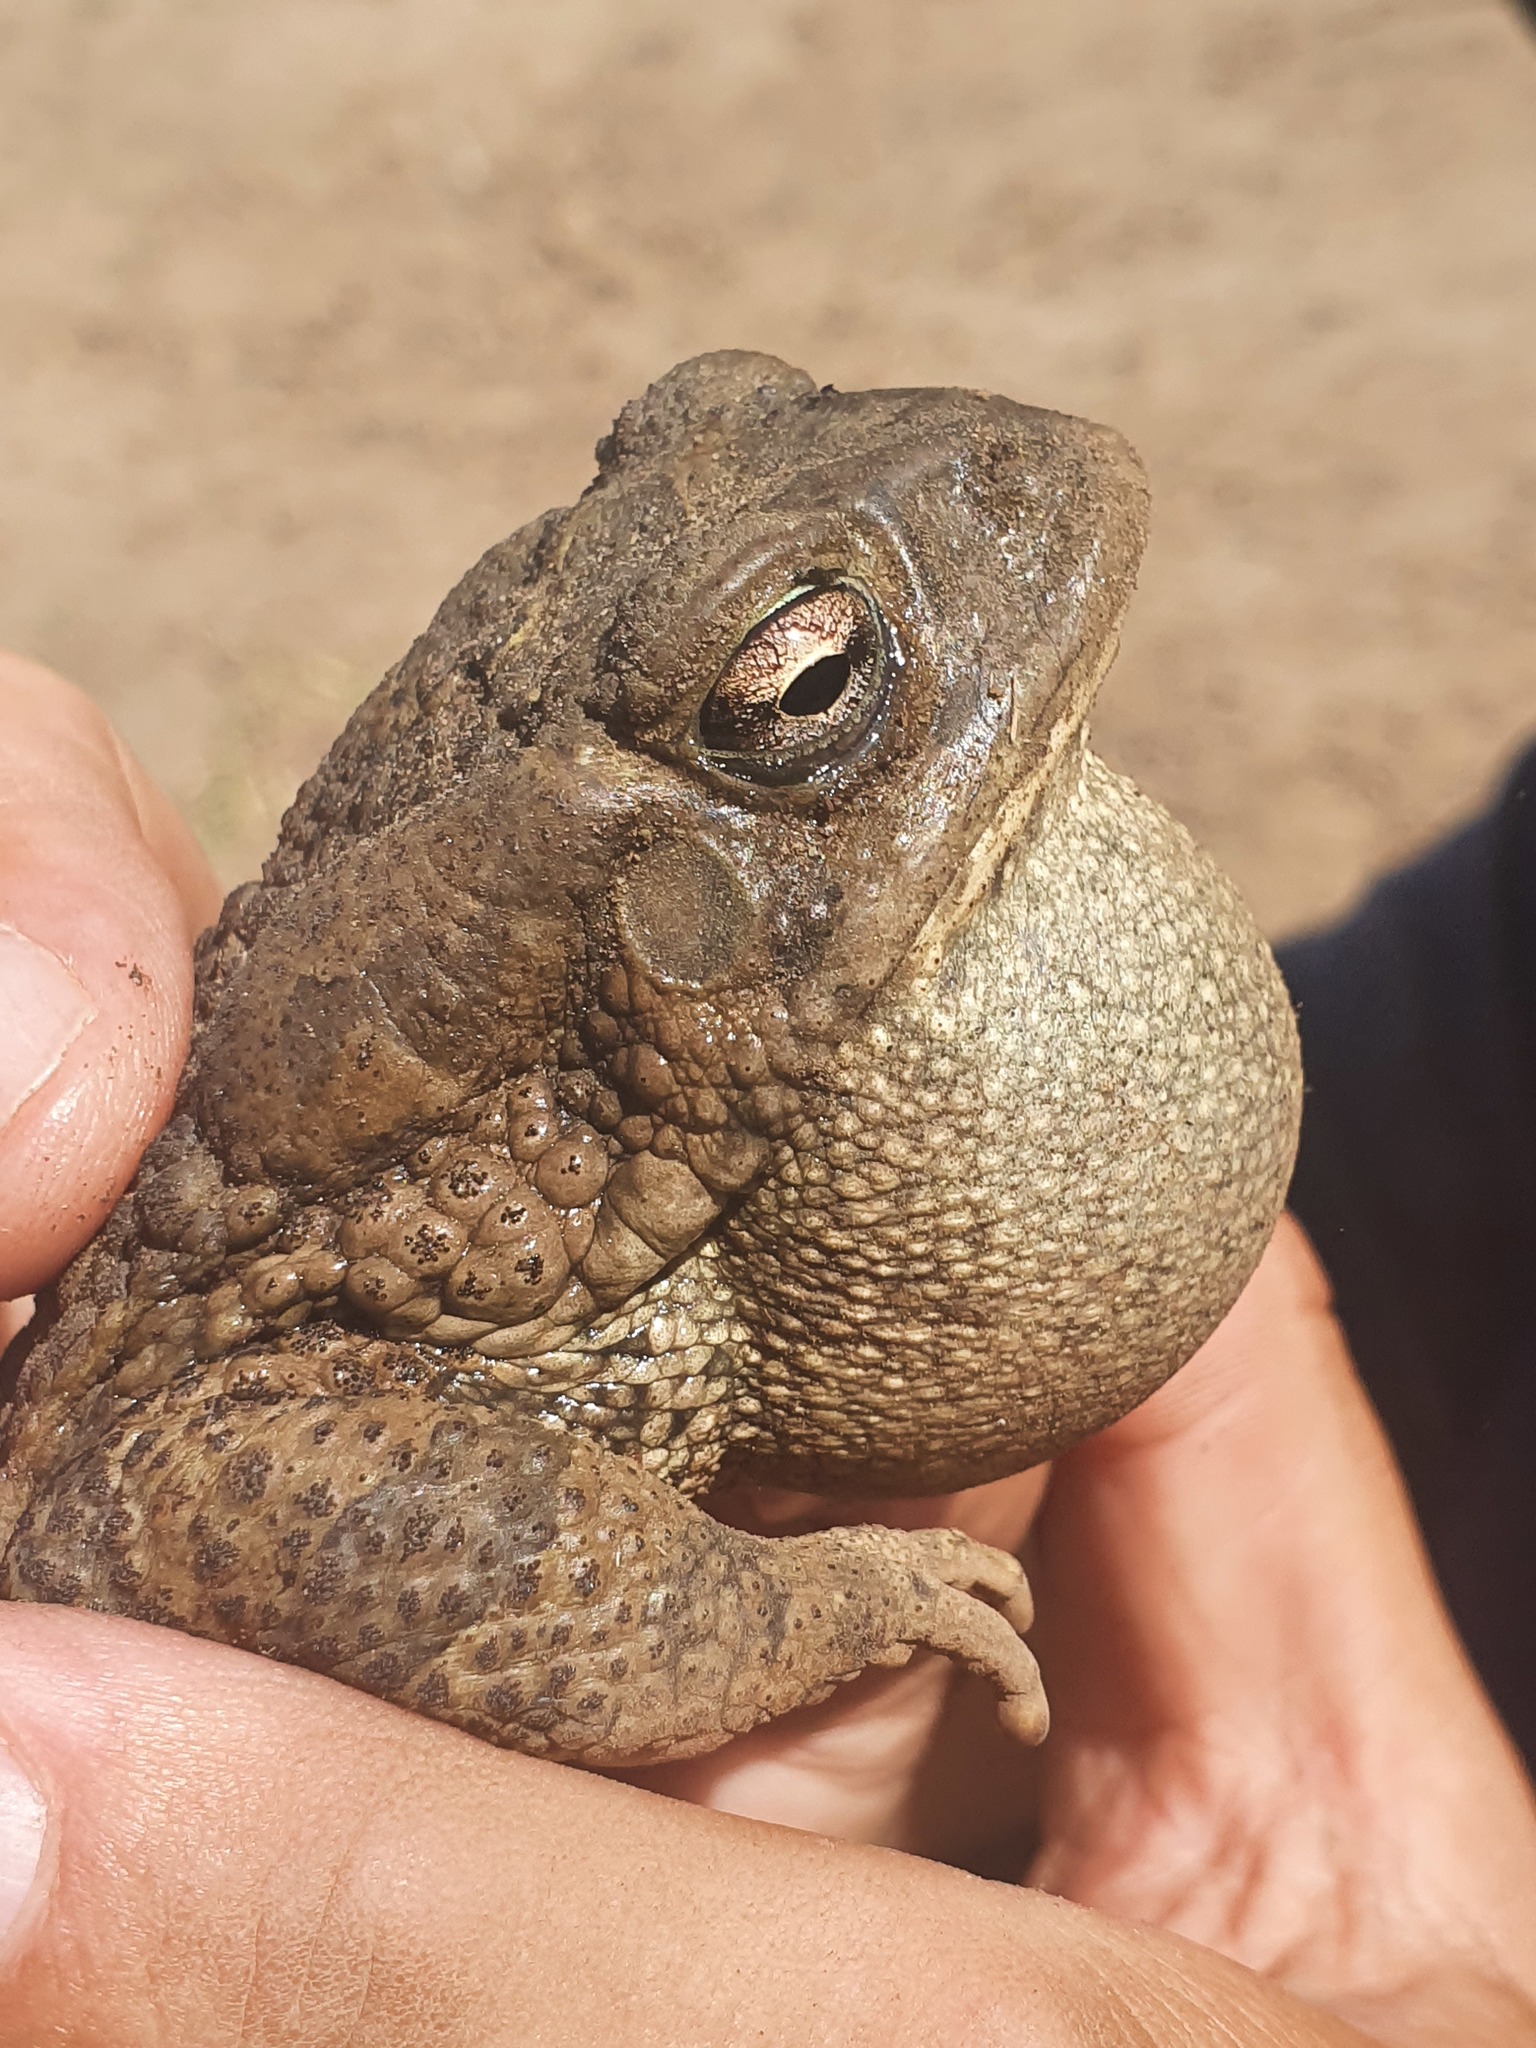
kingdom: Animalia
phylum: Chordata
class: Amphibia
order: Anura
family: Bufonidae
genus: Sclerophrys
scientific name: Sclerophrys mauritanica
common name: Berber toad
